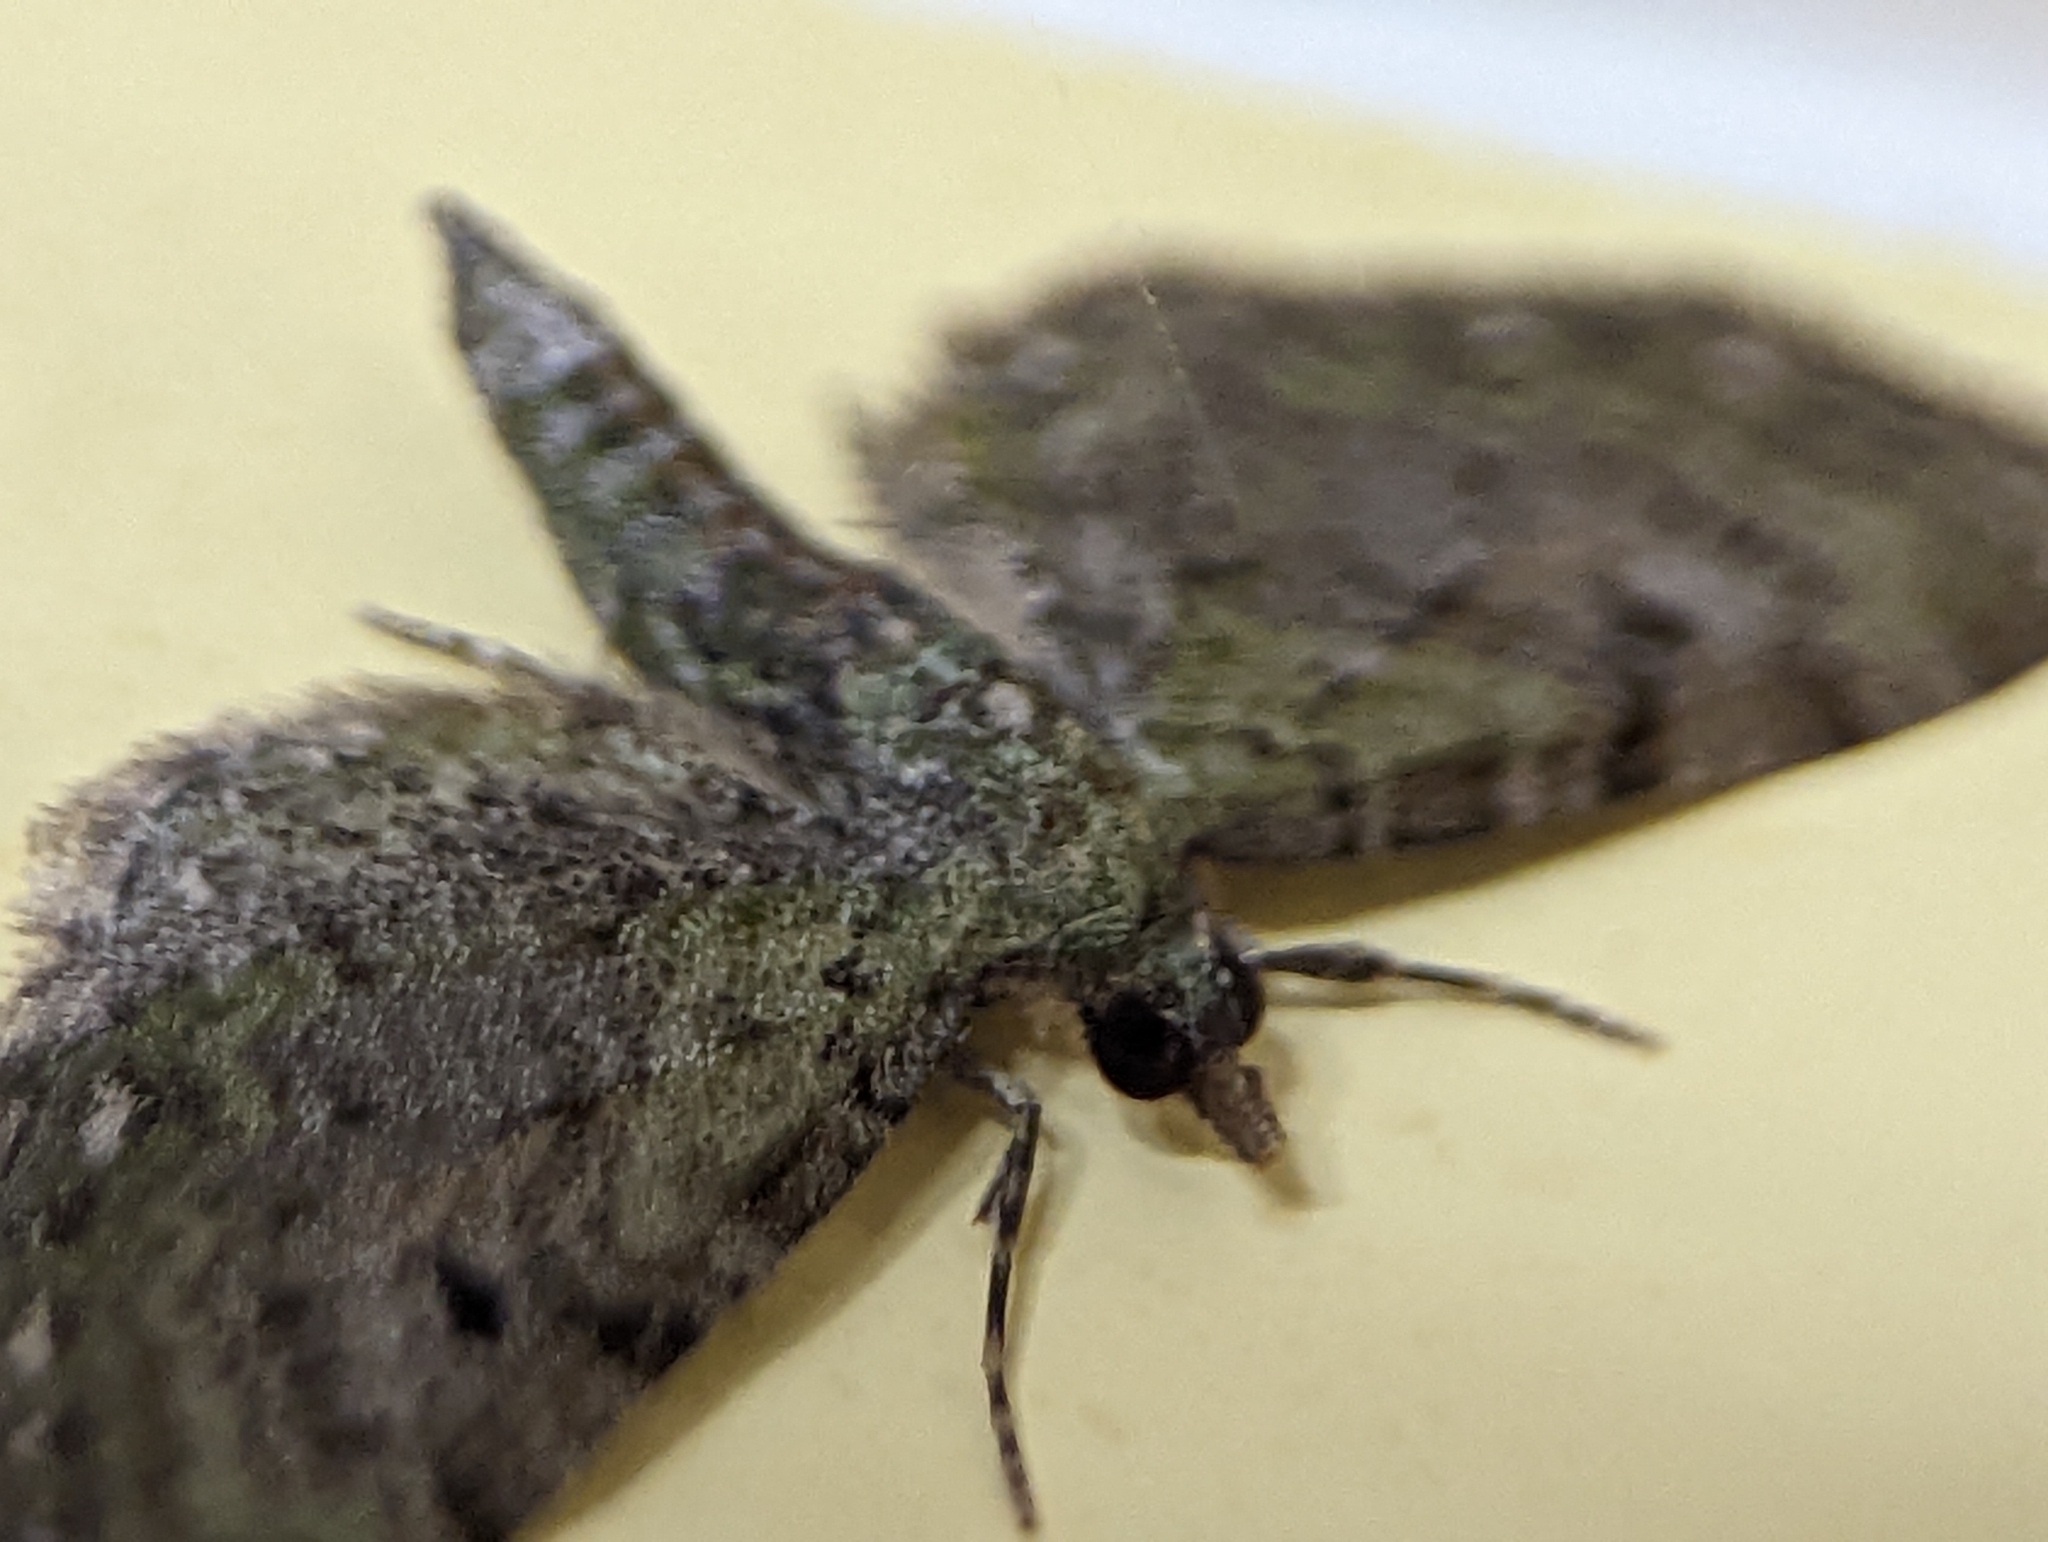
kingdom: Animalia
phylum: Arthropoda
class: Insecta
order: Lepidoptera
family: Geometridae
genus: Eupithecia
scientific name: Eupithecia miserulata
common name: Common eupithecia
